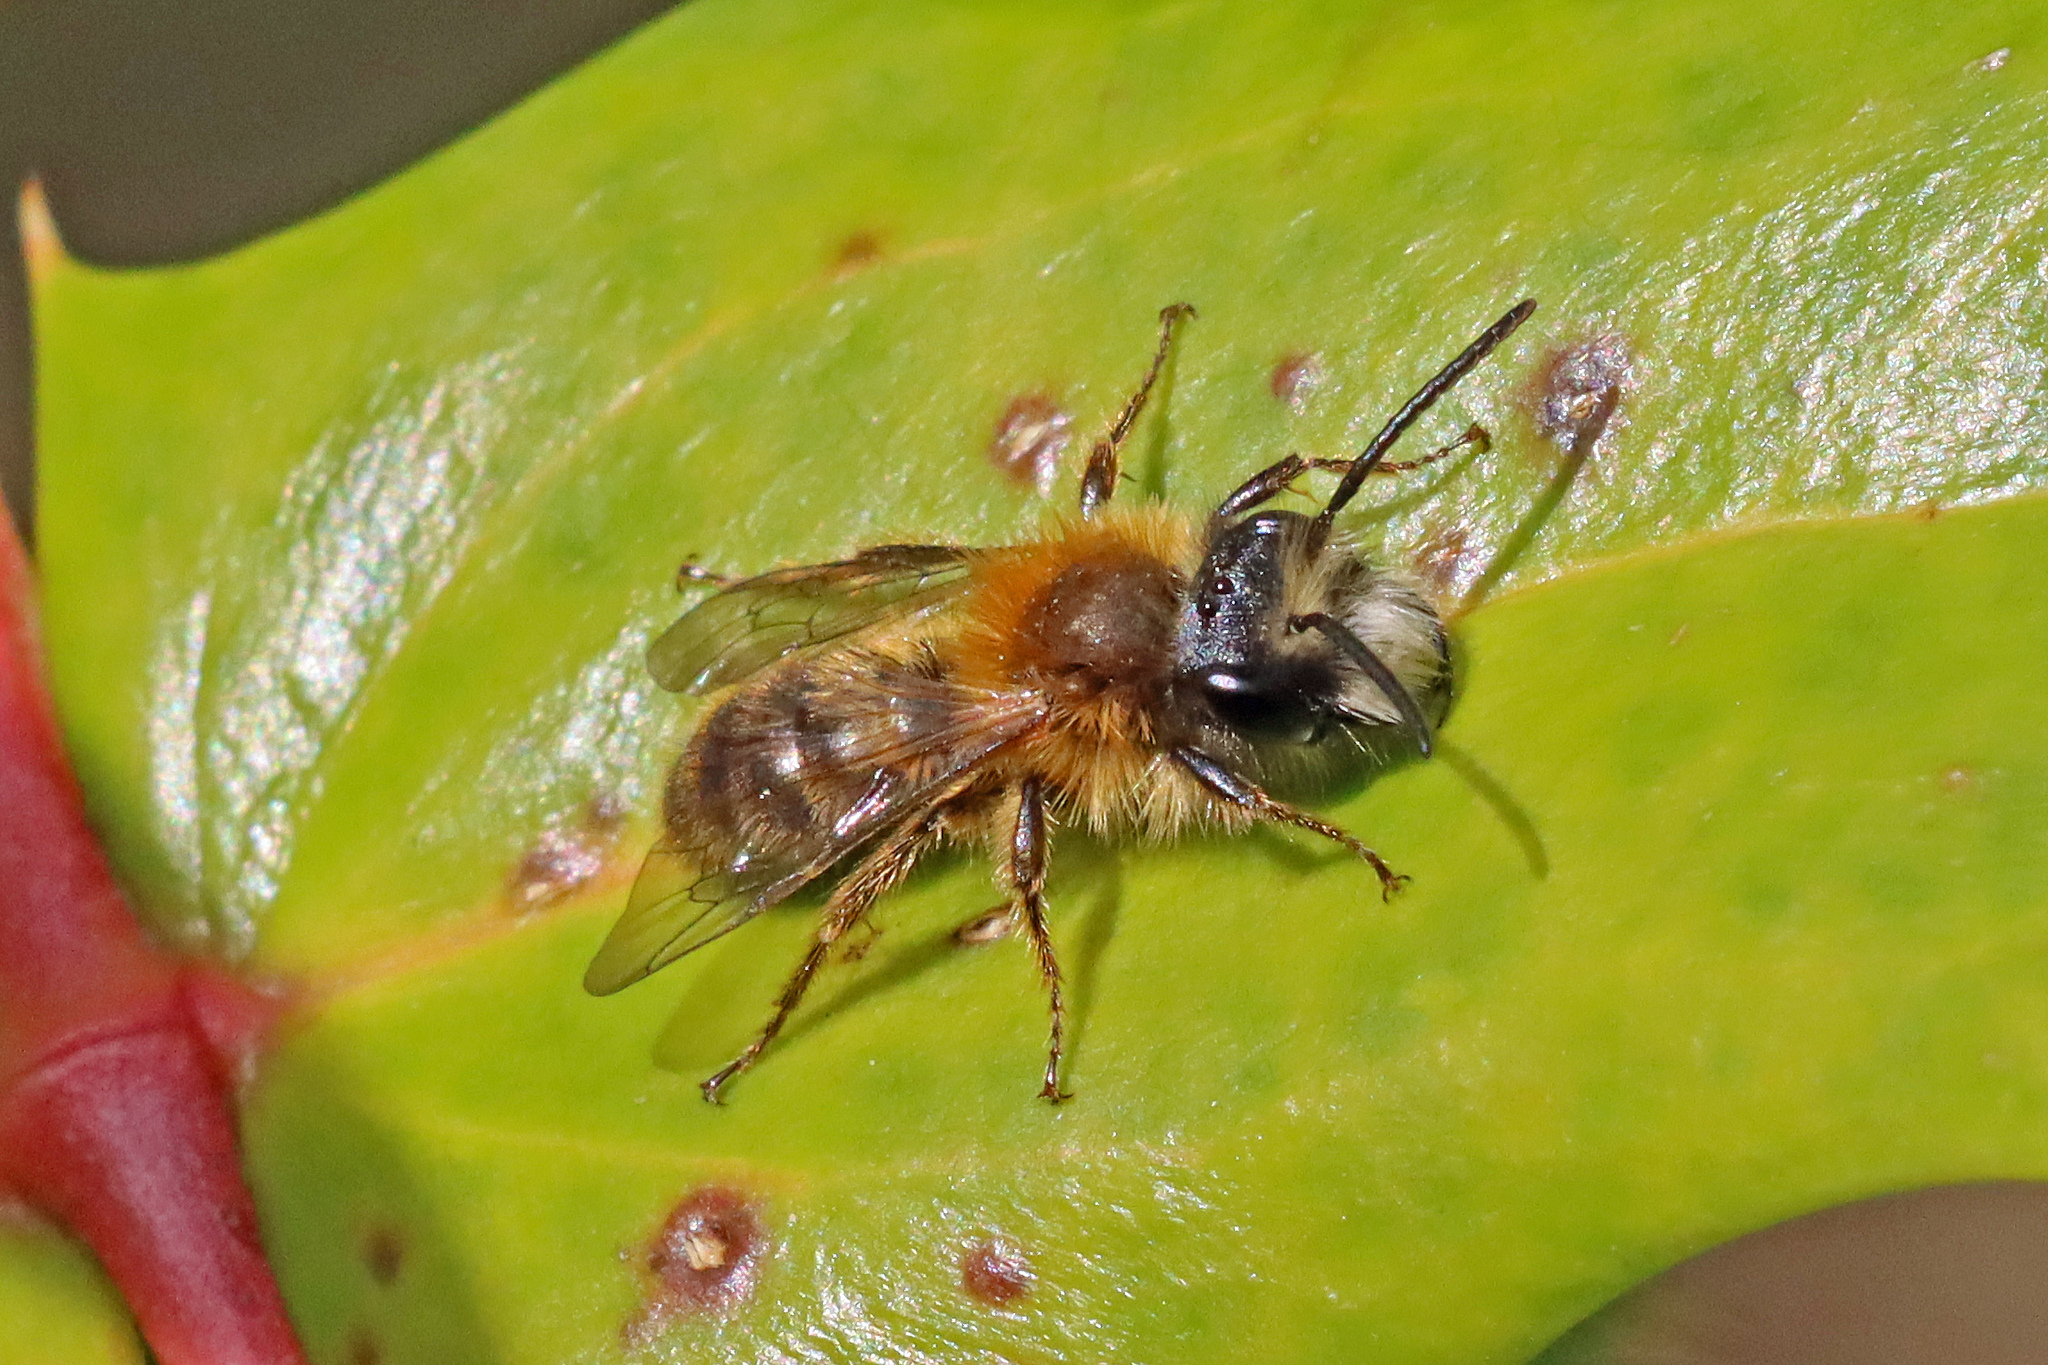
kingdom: Animalia
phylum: Arthropoda
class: Insecta
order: Hymenoptera
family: Andrenidae
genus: Andrena
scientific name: Andrena fulva
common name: Tawny mining bee
